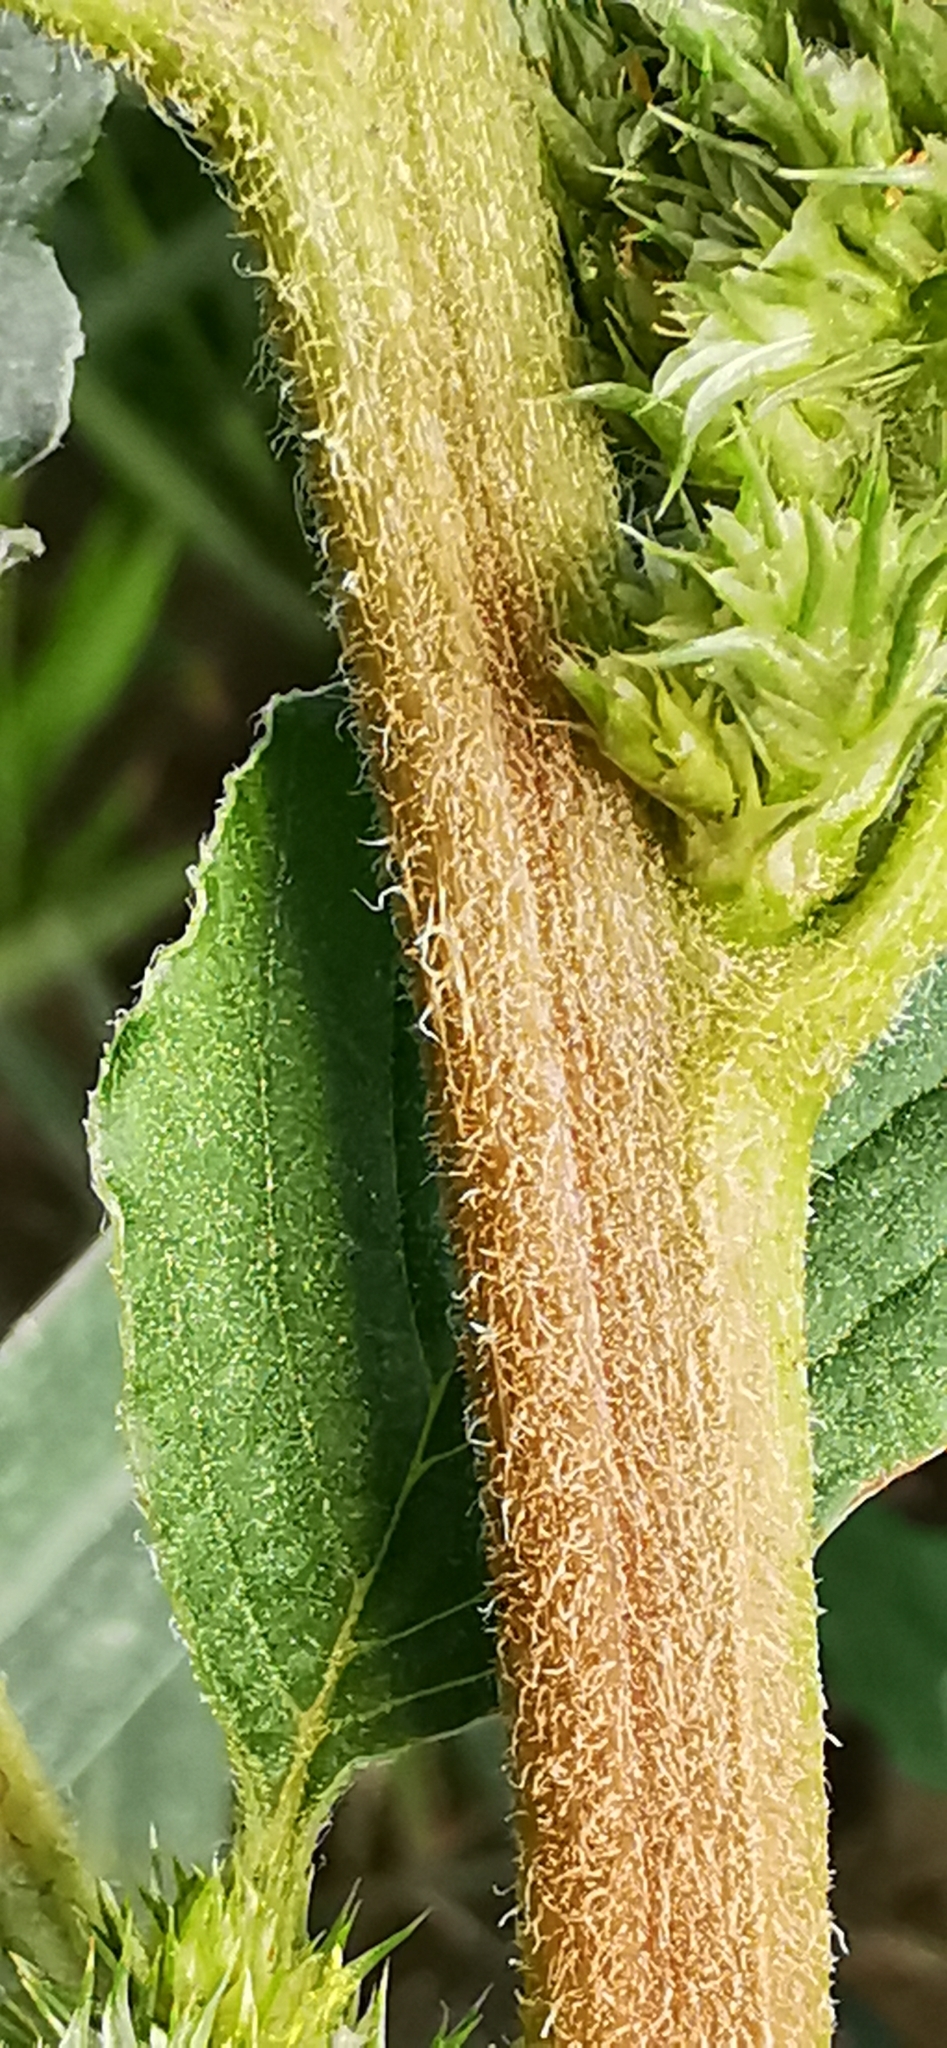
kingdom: Plantae
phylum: Tracheophyta
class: Magnoliopsida
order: Caryophyllales
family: Amaranthaceae
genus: Amaranthus
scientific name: Amaranthus retroflexus
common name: Redroot amaranth
